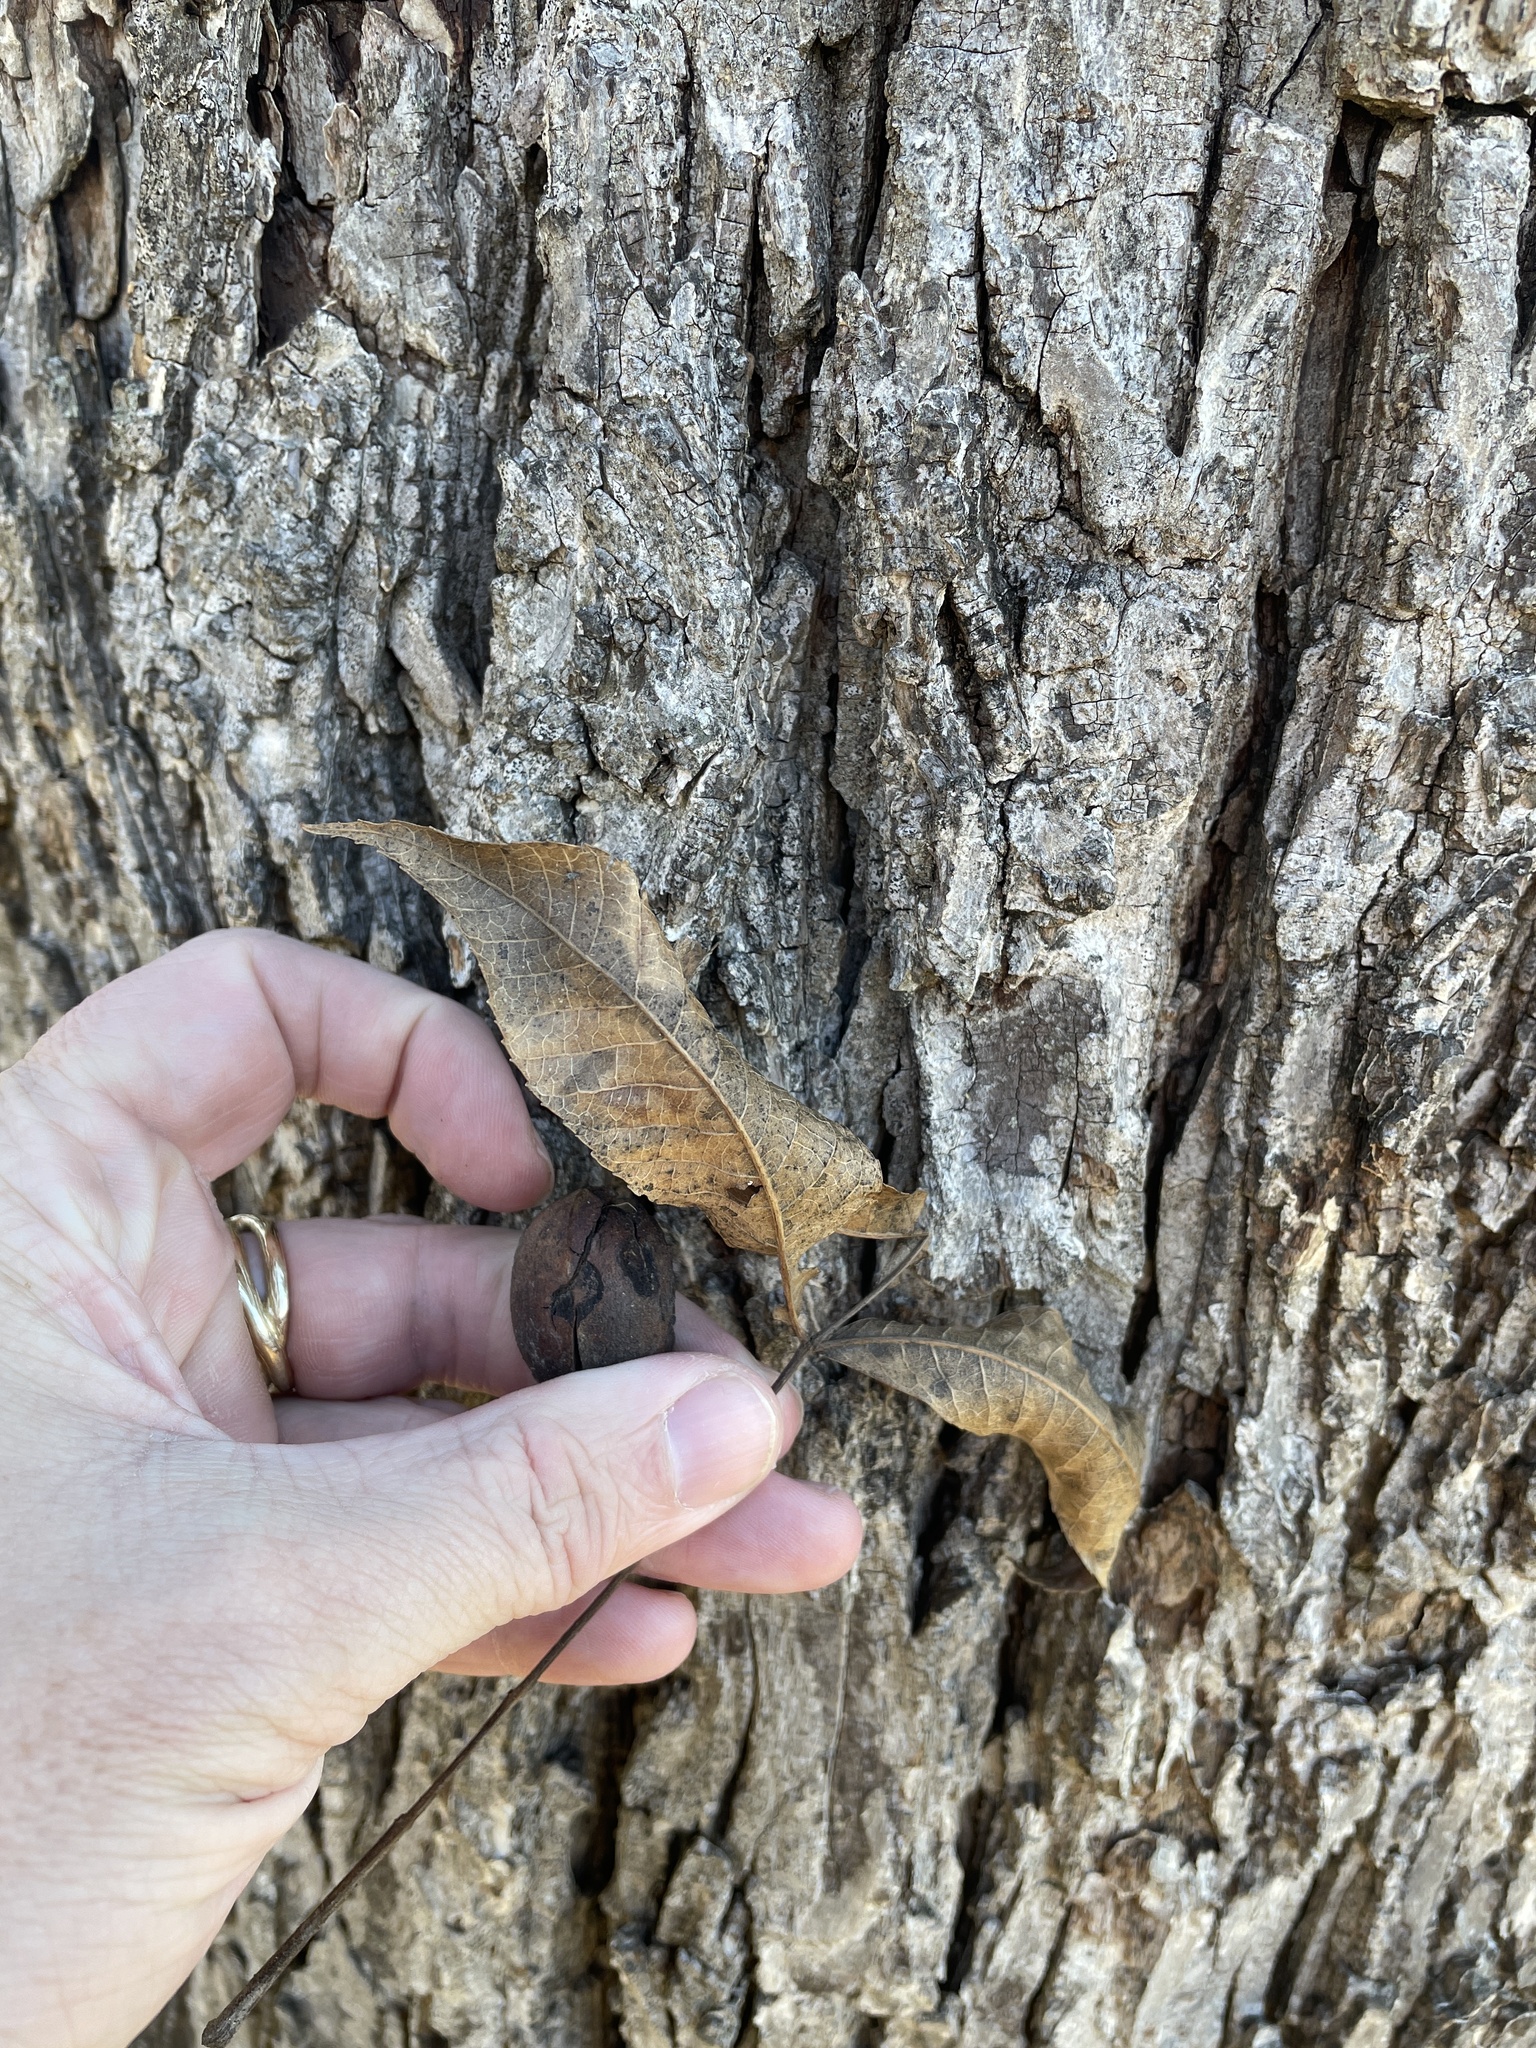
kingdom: Plantae
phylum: Tracheophyta
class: Magnoliopsida
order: Fagales
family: Juglandaceae
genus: Carya
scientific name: Carya illinoinensis
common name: Pecan
